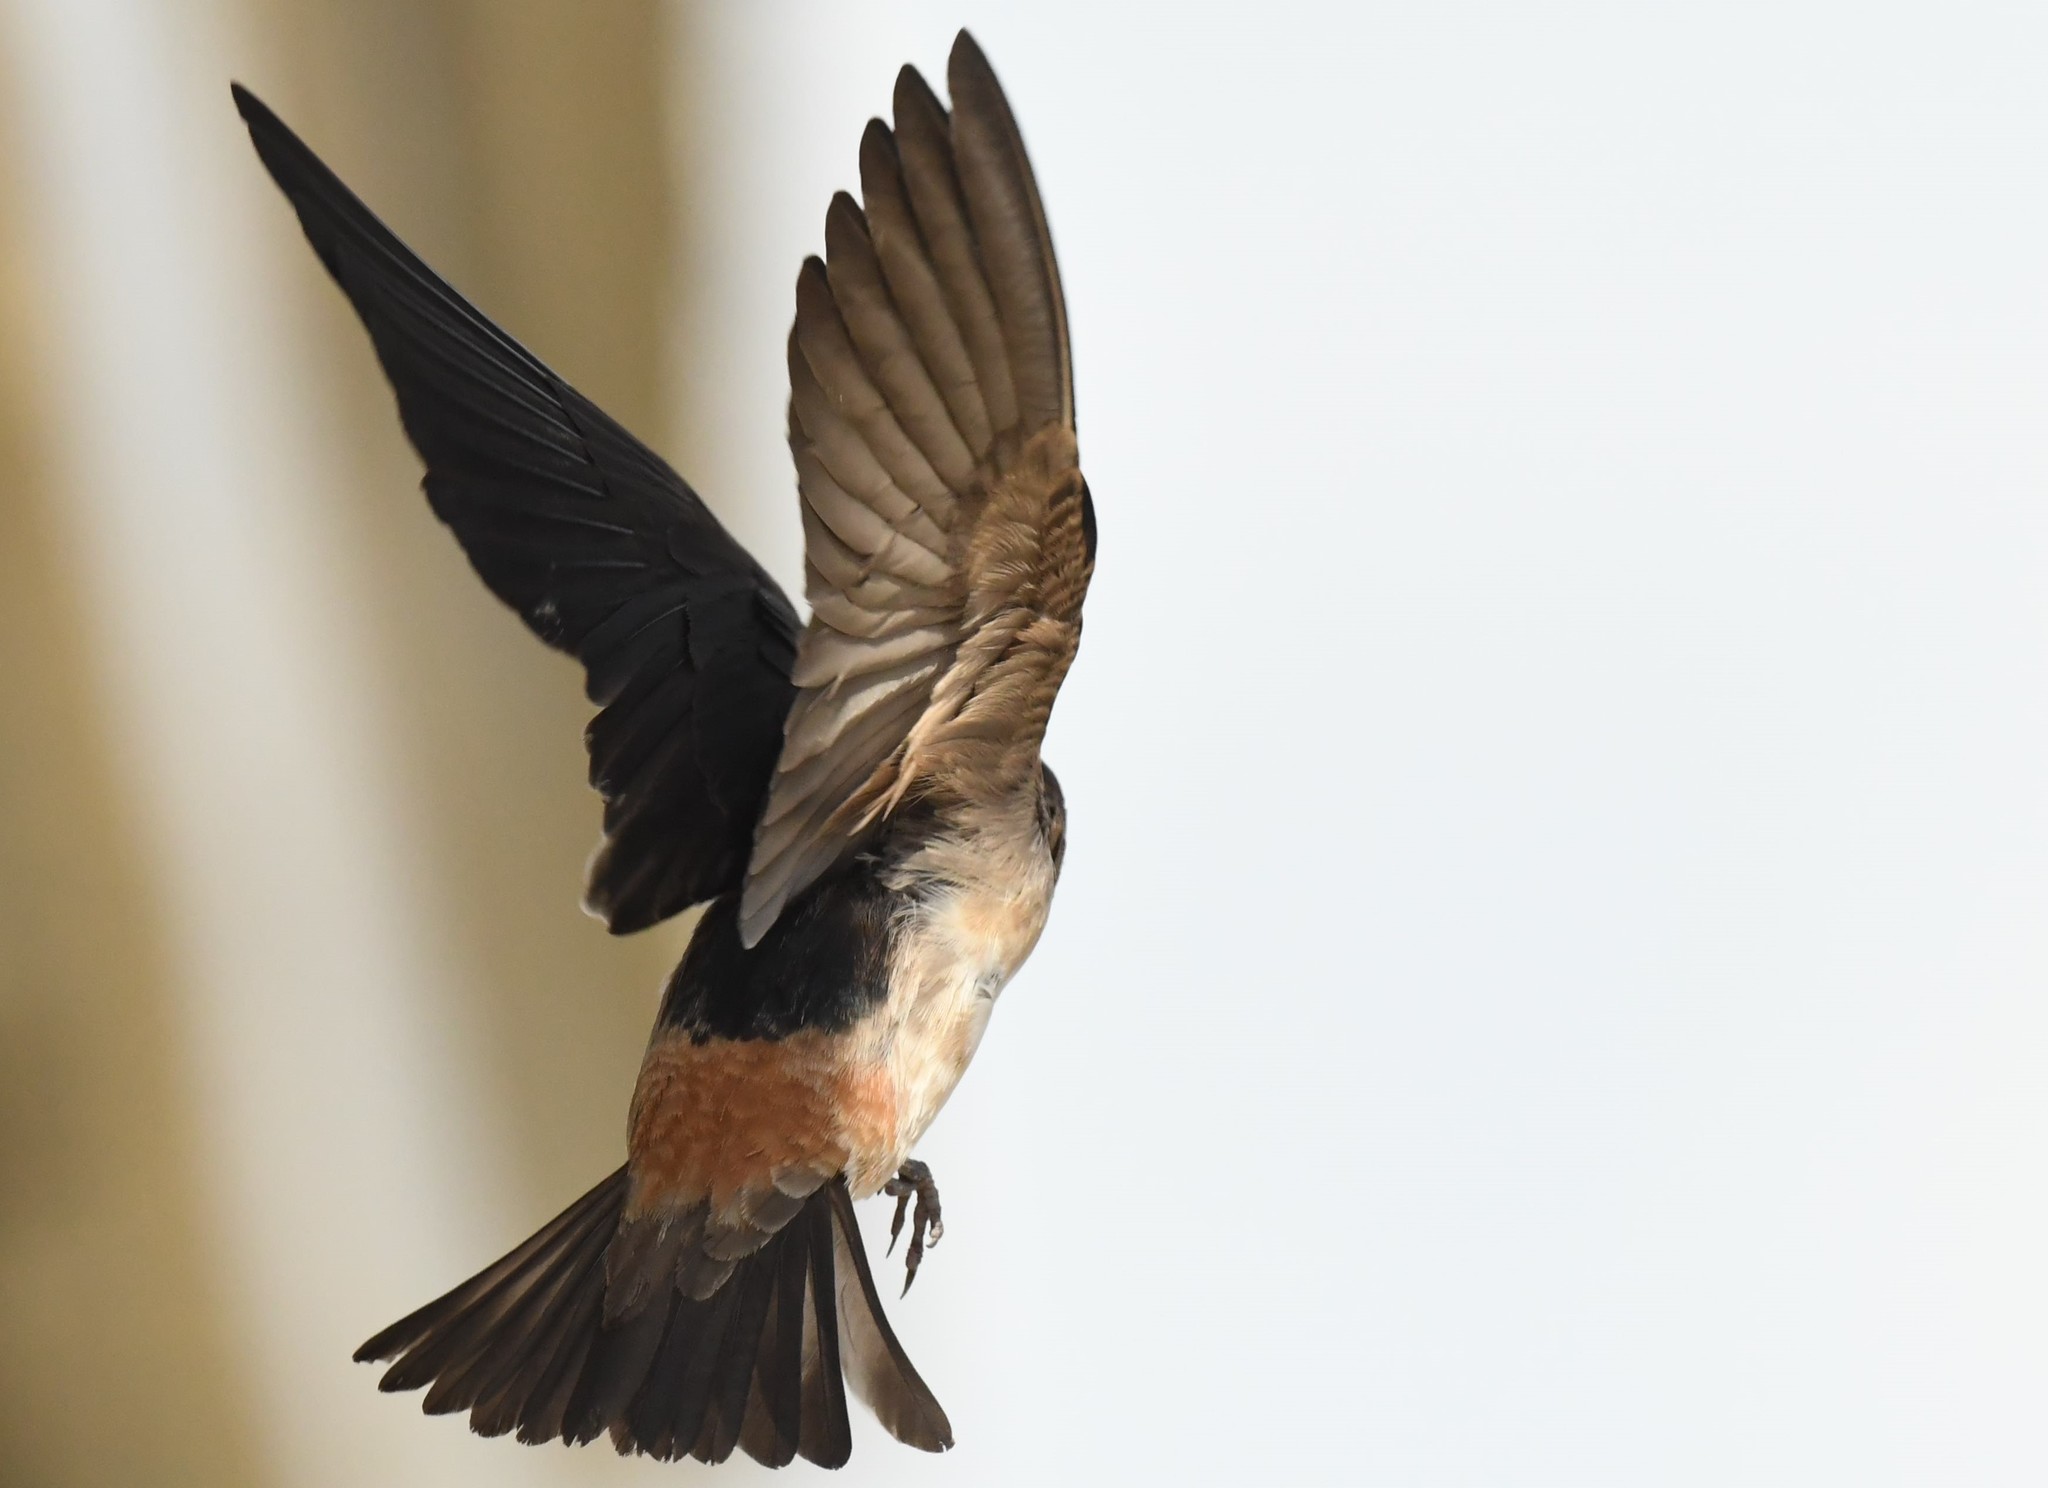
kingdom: Animalia
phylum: Chordata
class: Aves
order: Passeriformes
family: Hirundinidae
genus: Petrochelidon
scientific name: Petrochelidon pyrrhonota
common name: American cliff swallow
